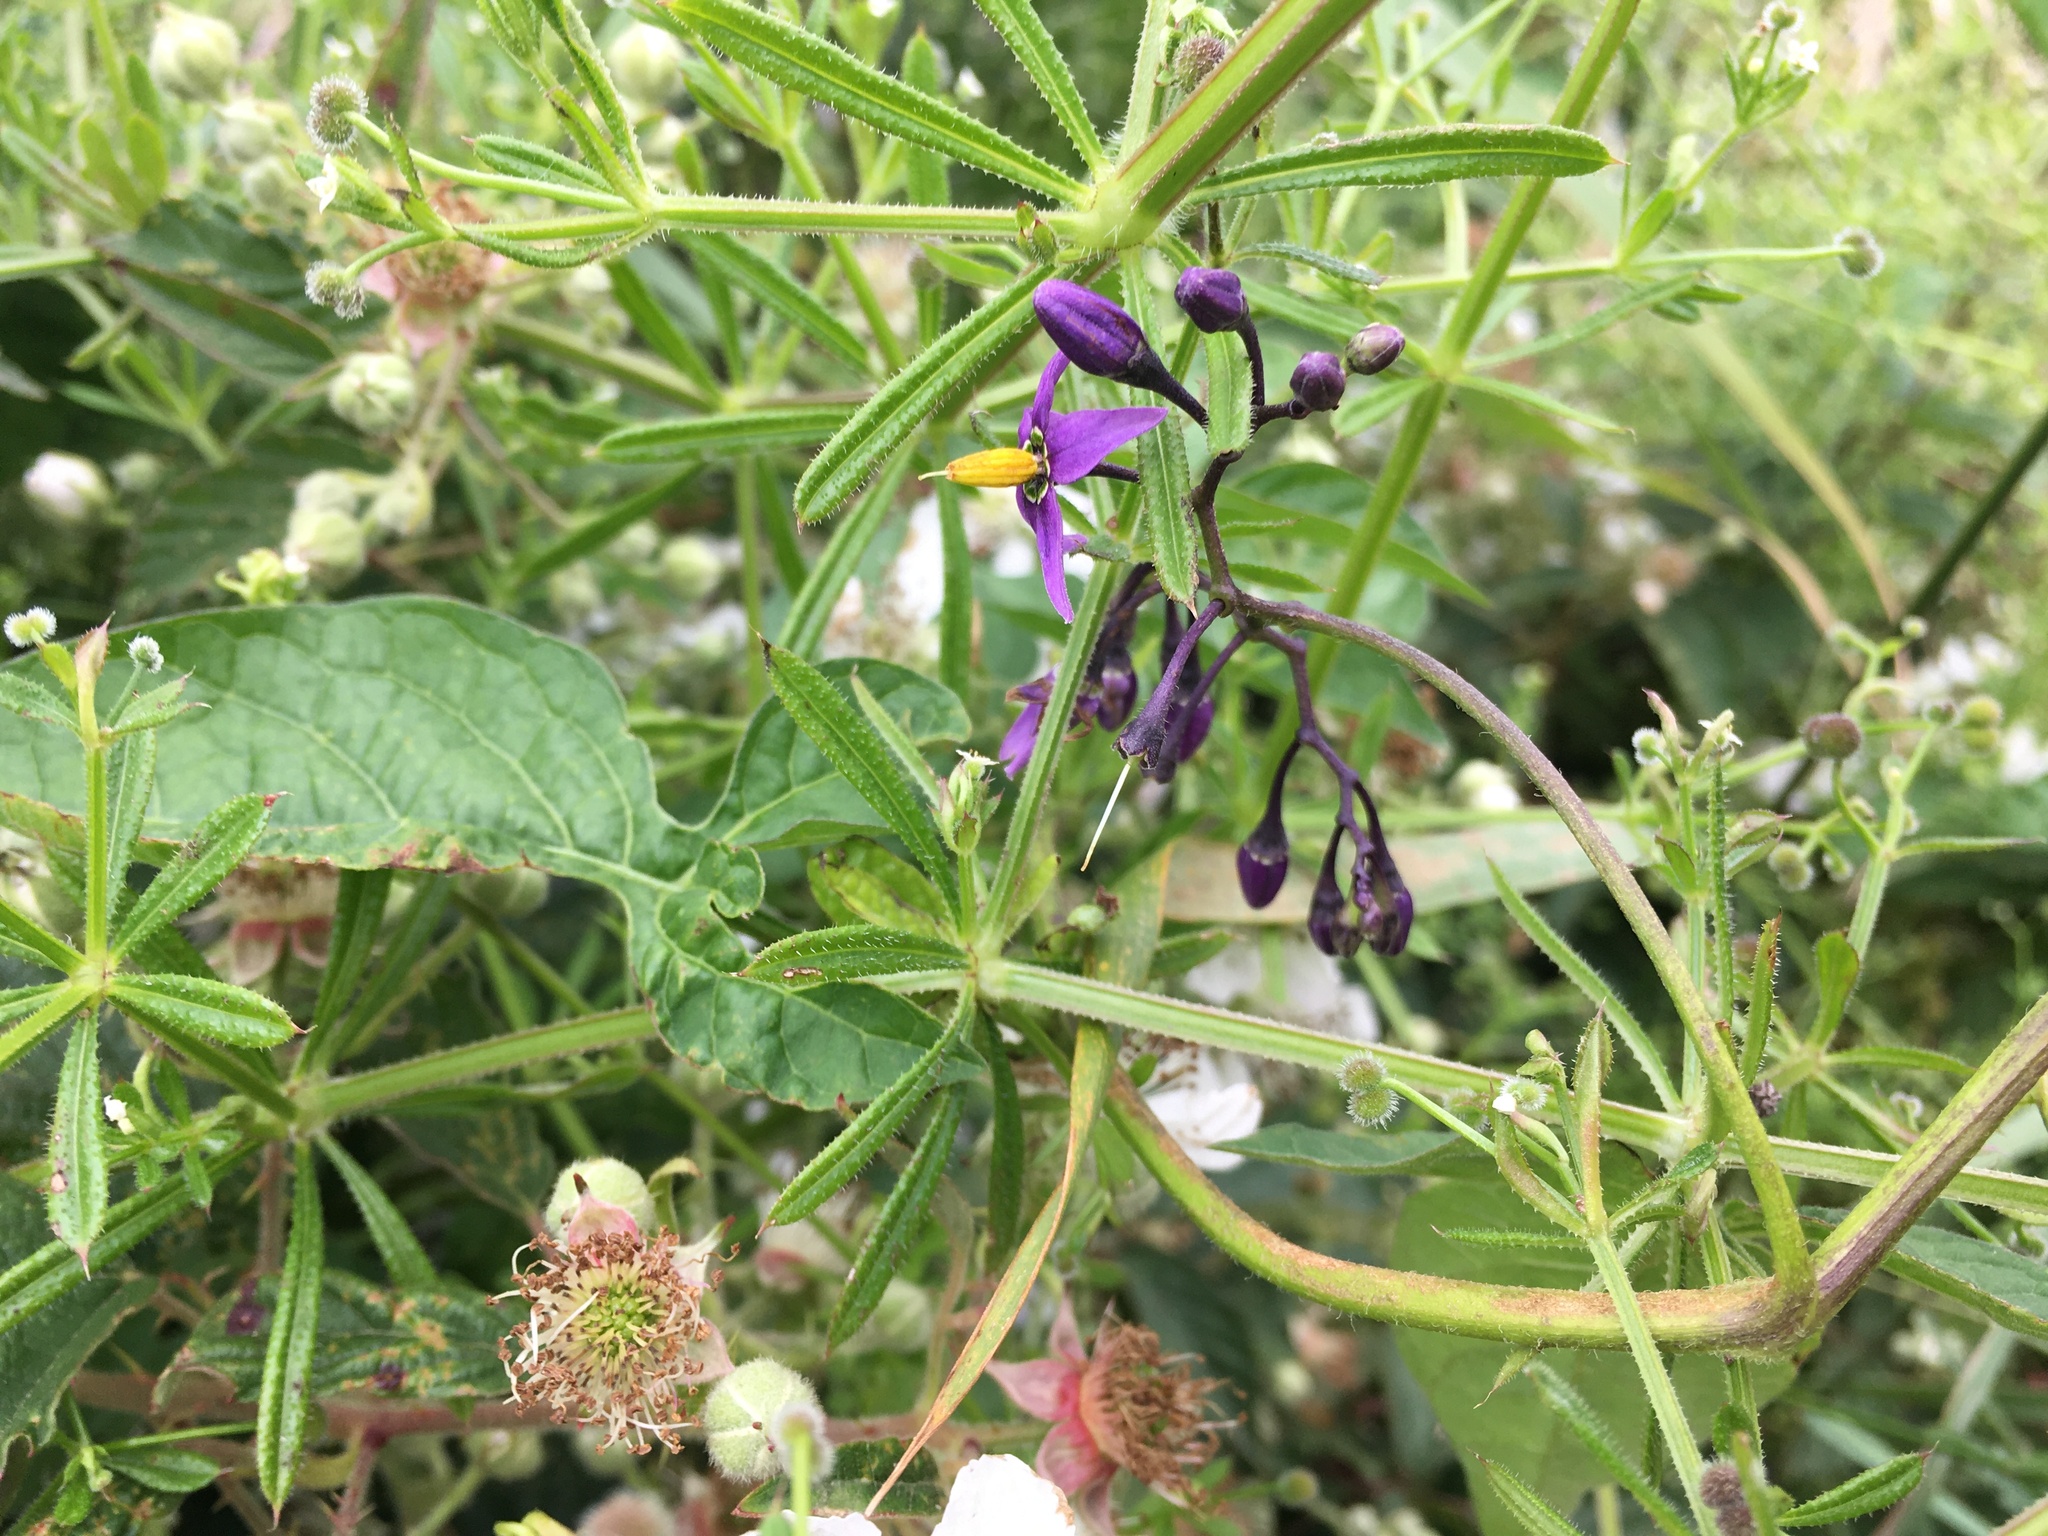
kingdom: Plantae
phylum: Tracheophyta
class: Magnoliopsida
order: Solanales
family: Solanaceae
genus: Solanum
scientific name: Solanum dulcamara
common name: Climbing nightshade
